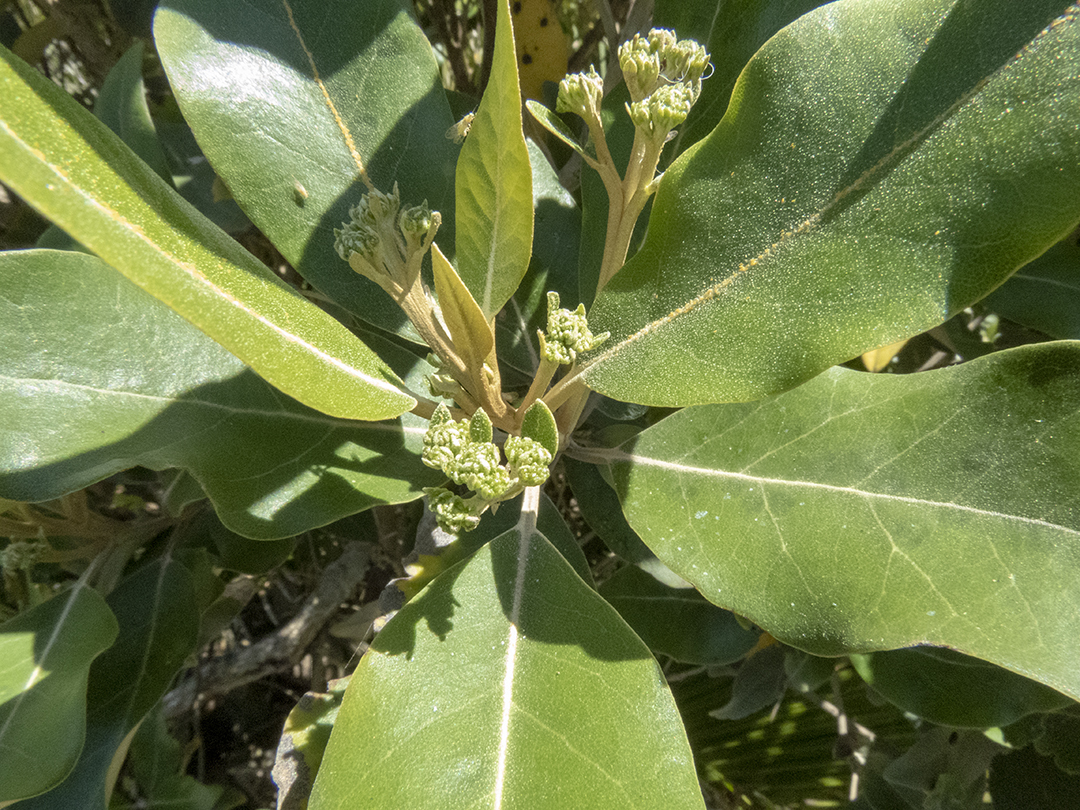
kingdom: Plantae
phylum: Tracheophyta
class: Magnoliopsida
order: Asterales
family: Asteraceae
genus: Olearia
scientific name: Olearia avicenniifolia
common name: Mangrove-leaf daisybush
